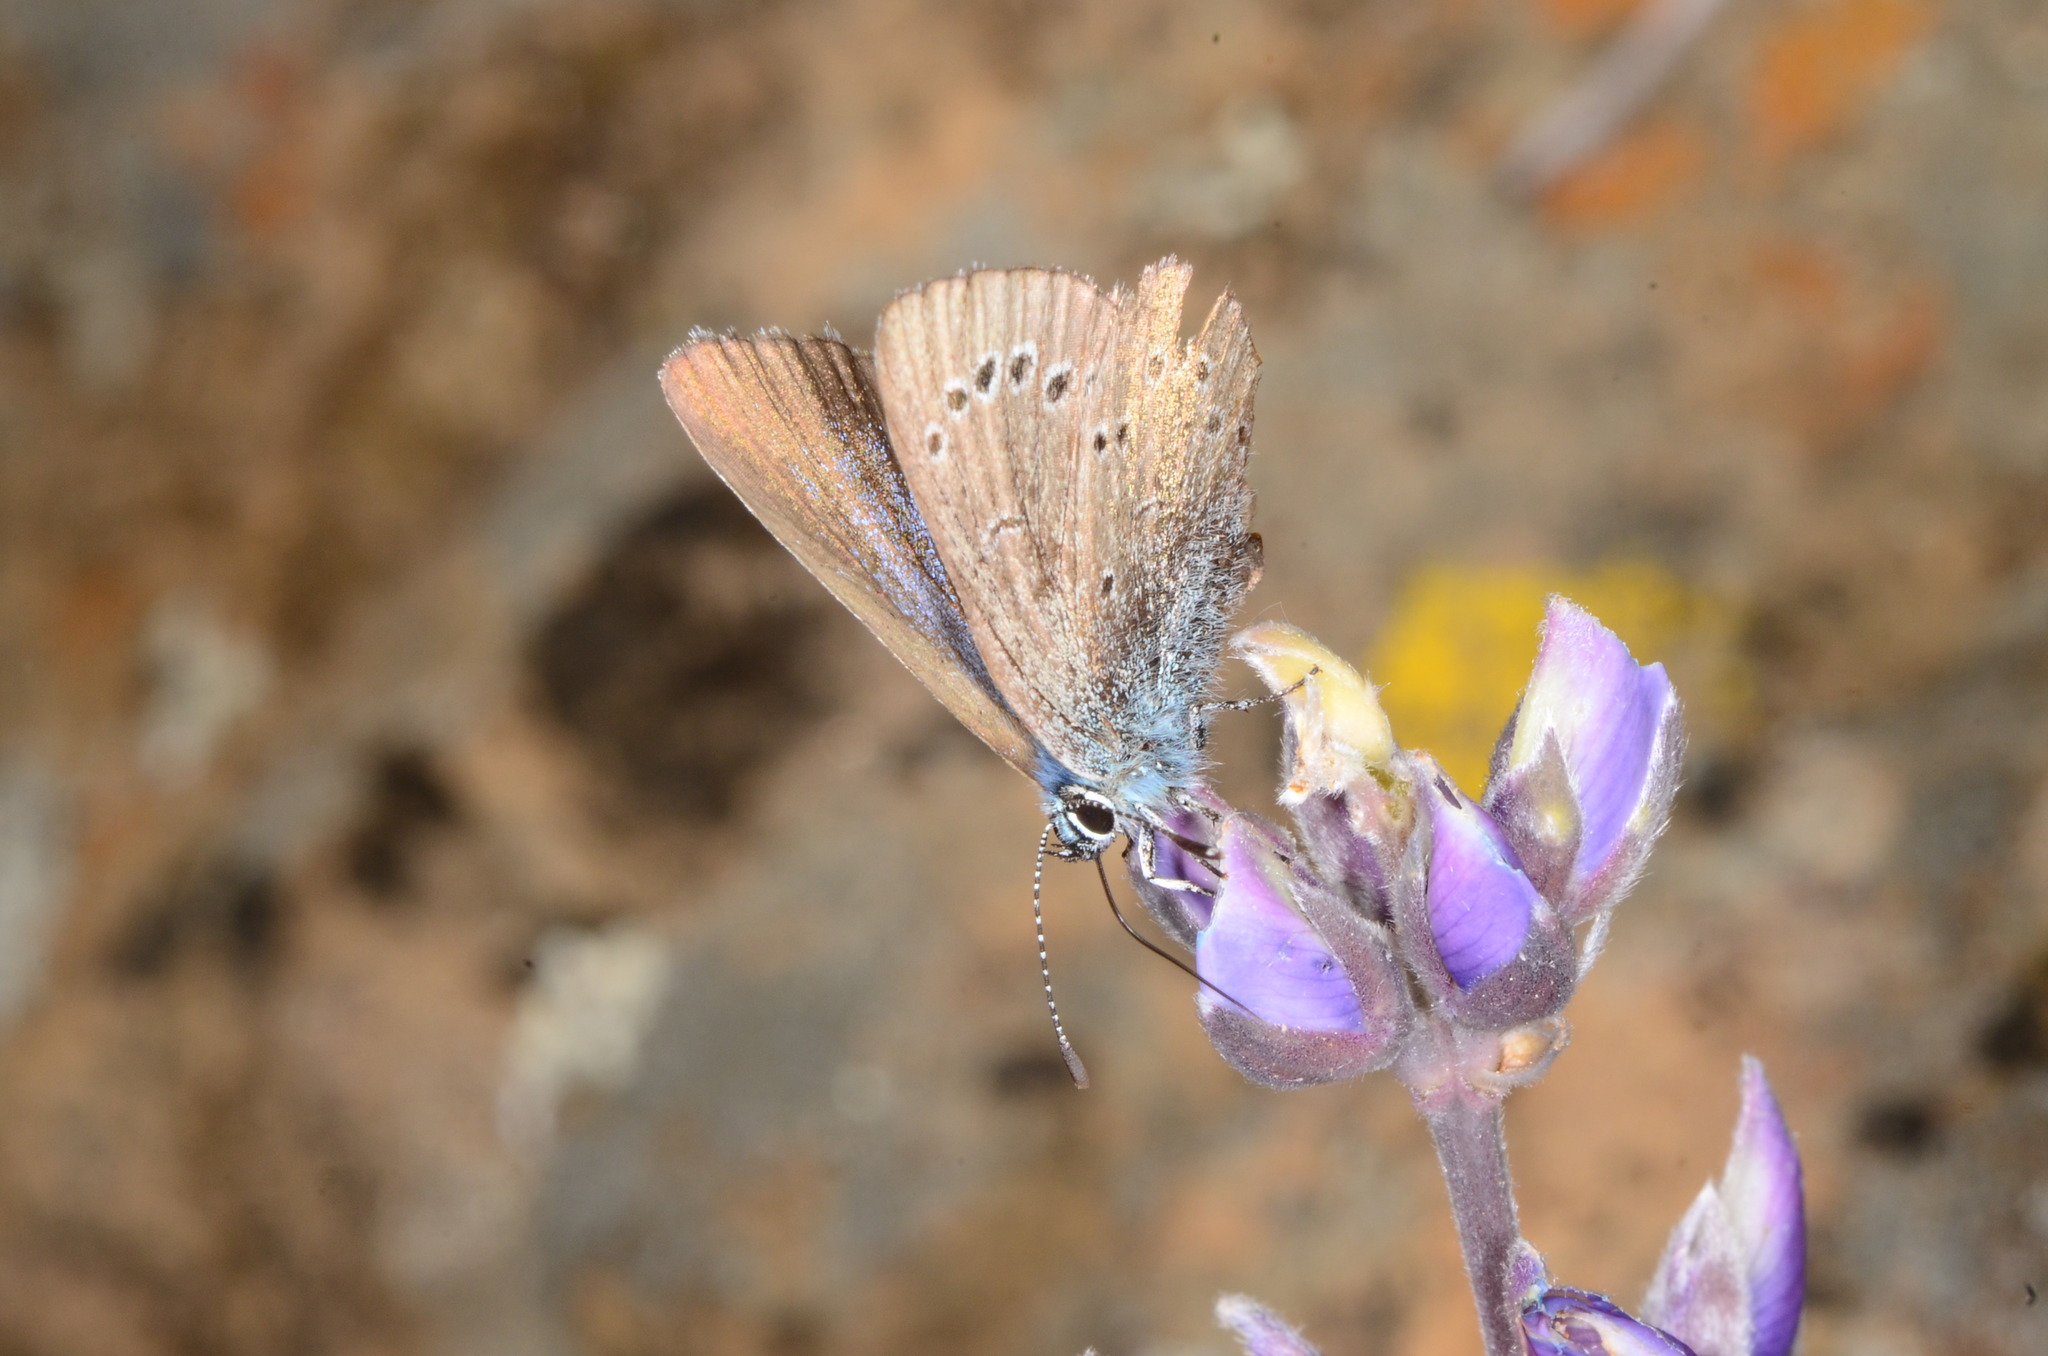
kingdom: Animalia
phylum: Arthropoda
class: Insecta
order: Lepidoptera
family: Lycaenidae
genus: Glaucopsyche
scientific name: Glaucopsyche lygdamus
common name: Silvery blue
